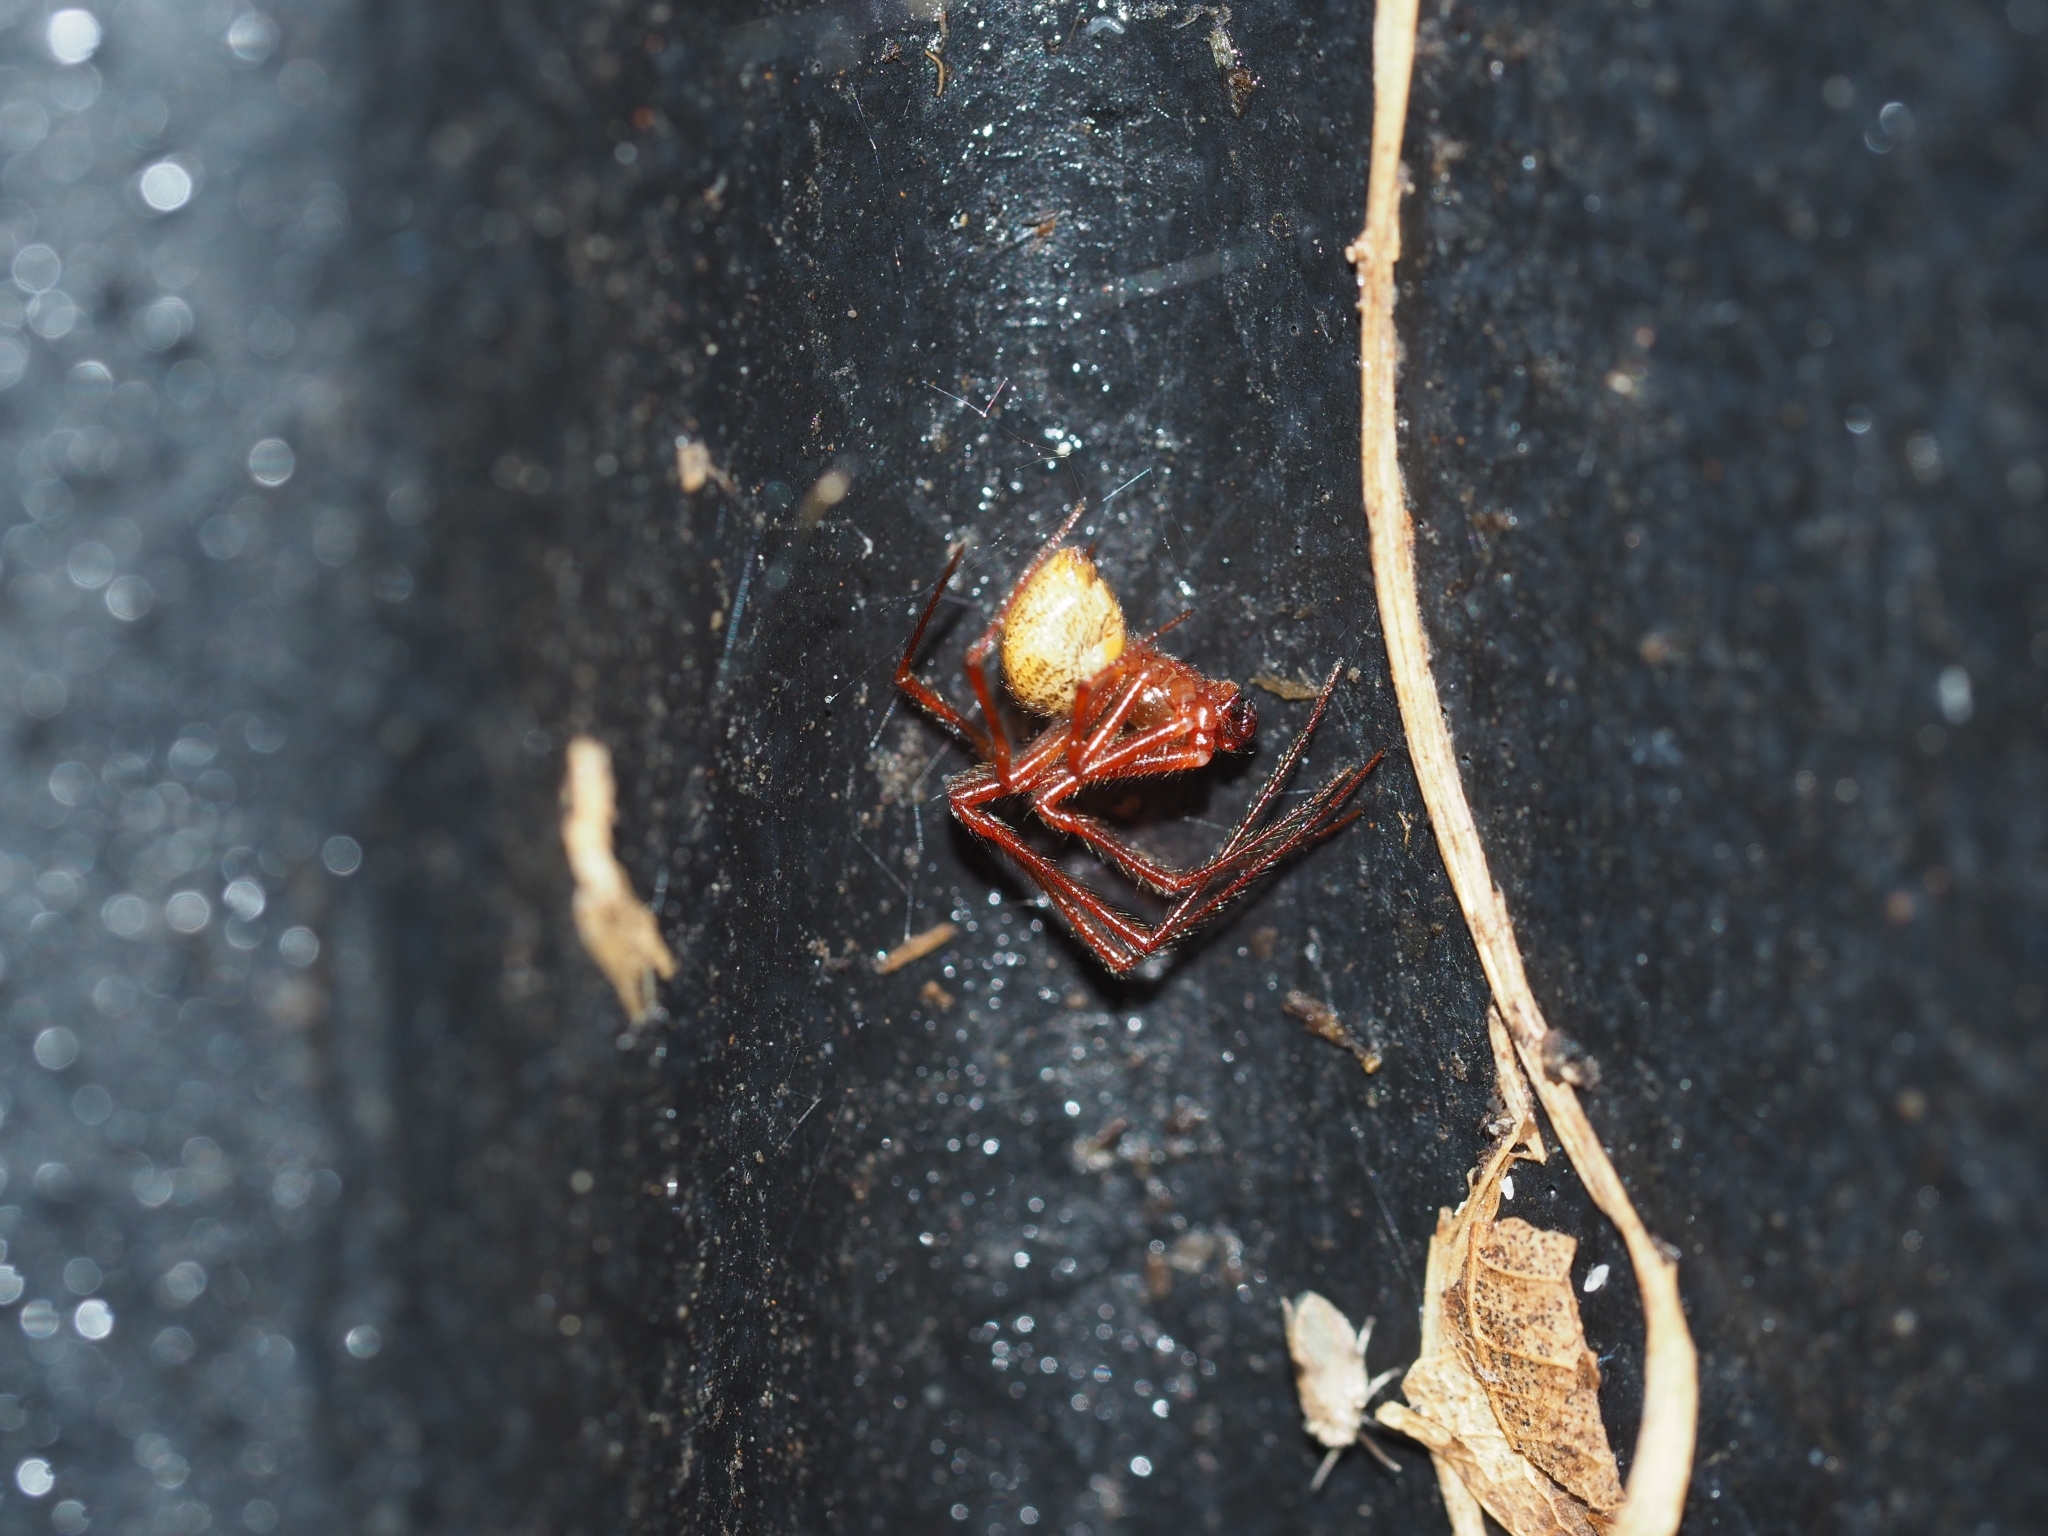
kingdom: Animalia
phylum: Arthropoda
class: Arachnida
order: Araneae
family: Theridiidae
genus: Parasteatoda
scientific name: Parasteatoda tepidariorum
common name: Common house spider
